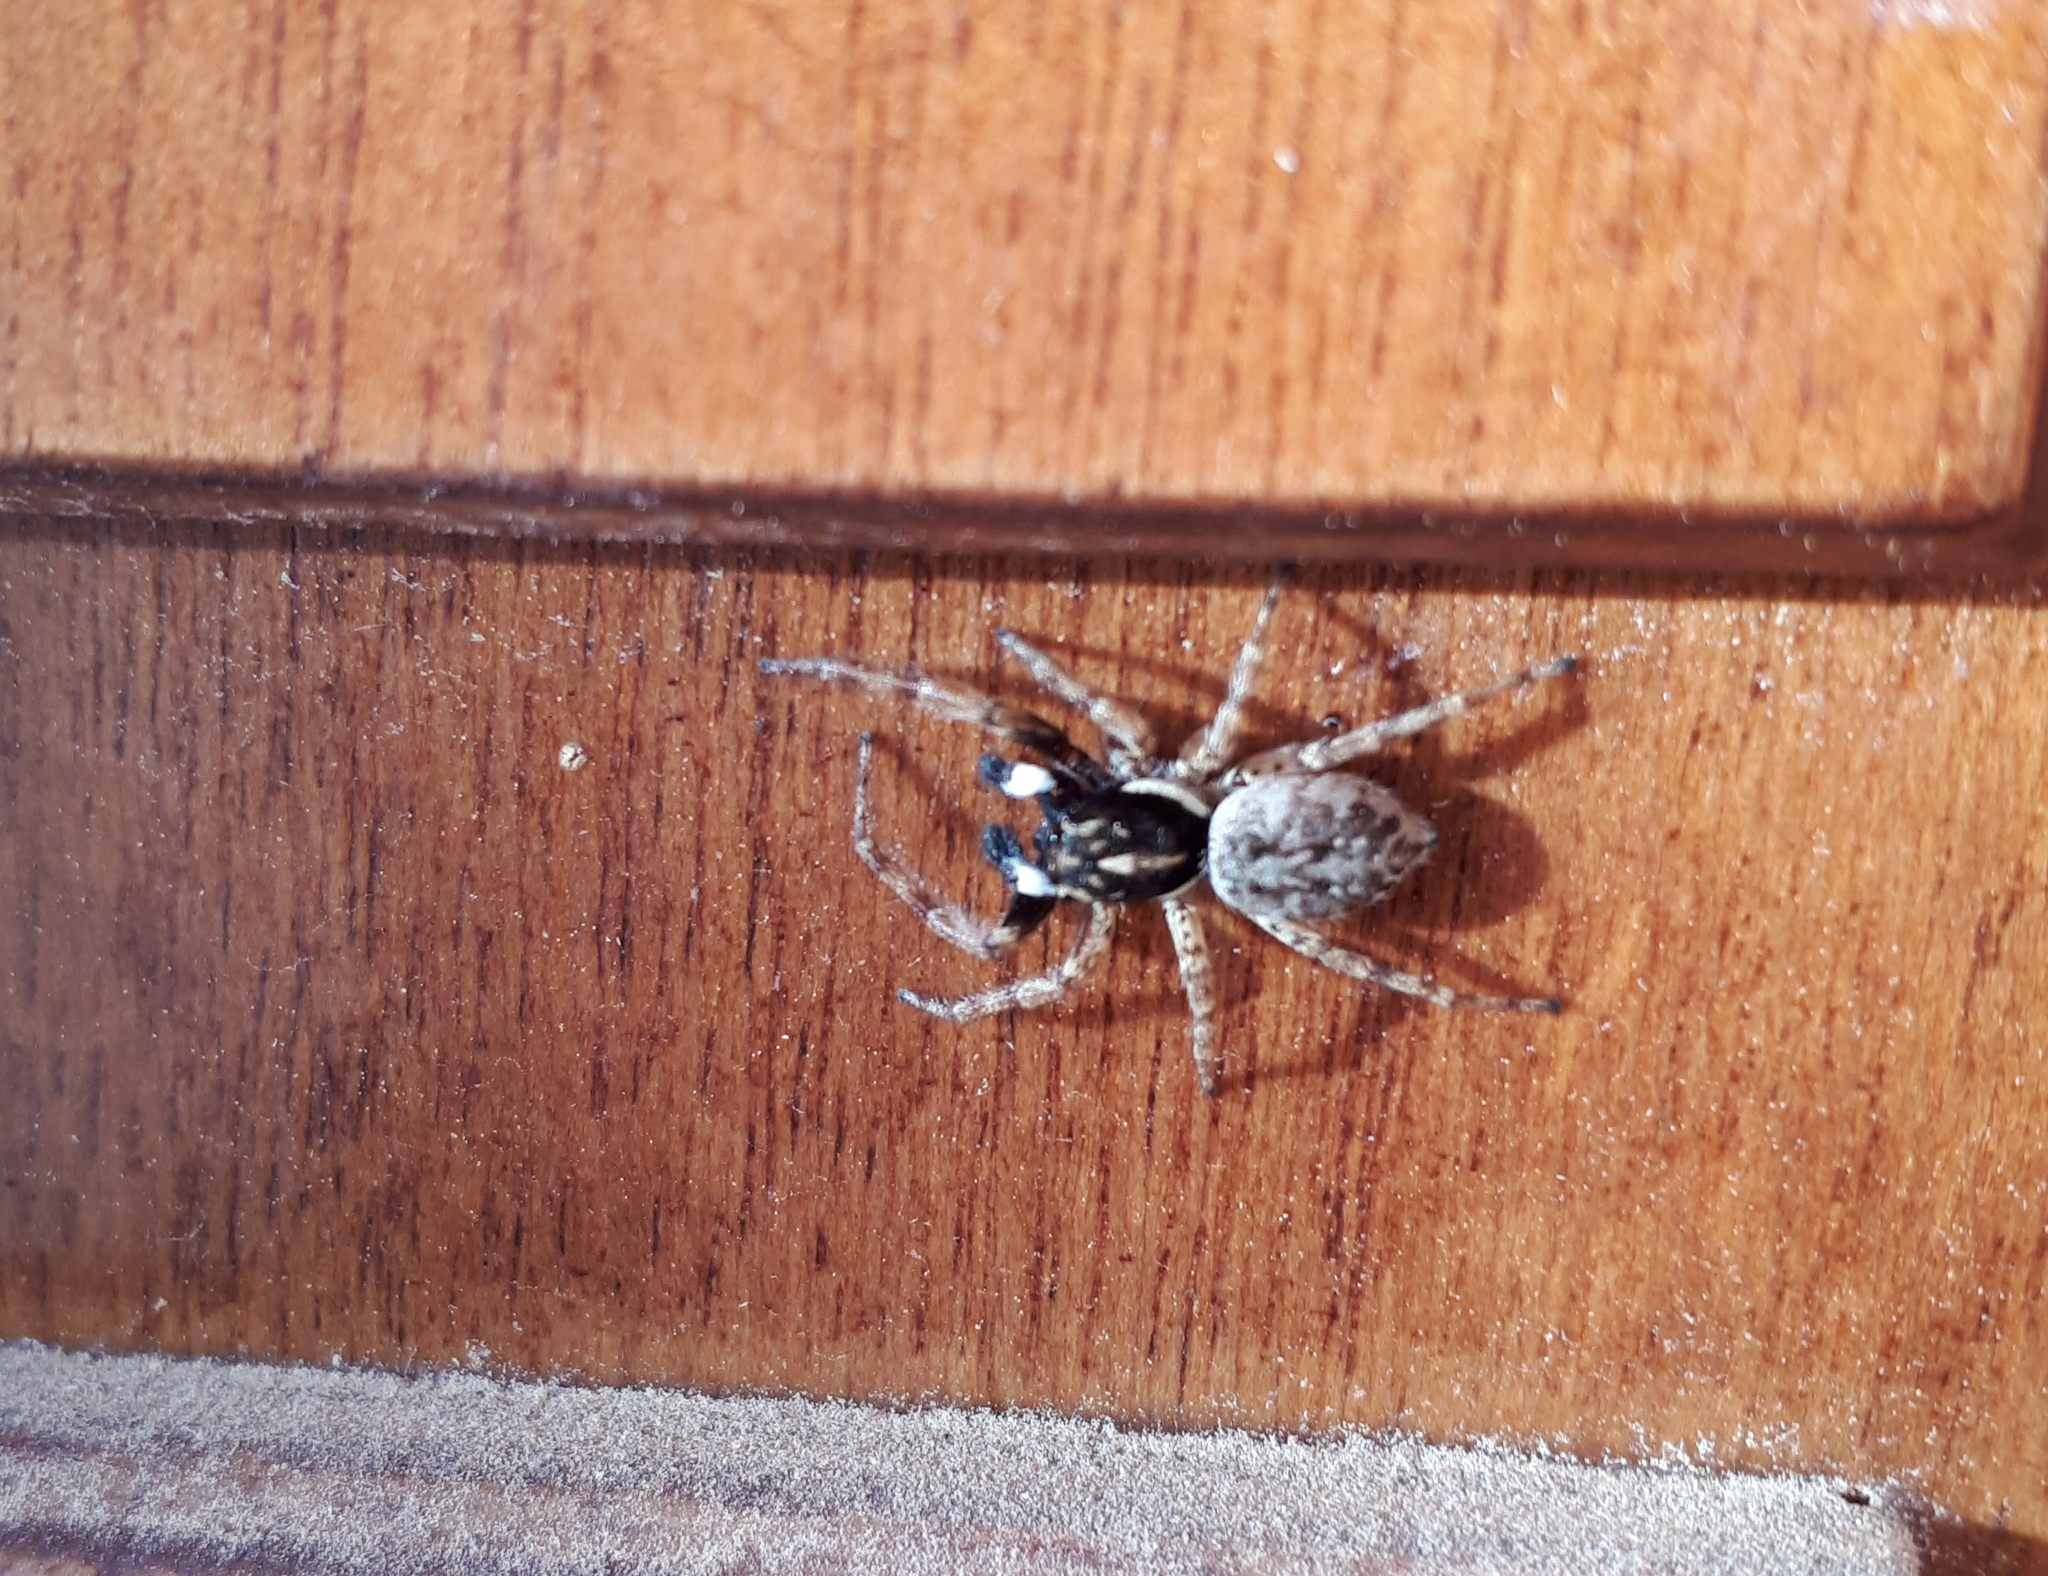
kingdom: Animalia
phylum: Arthropoda
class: Arachnida
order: Araneae
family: Salticidae
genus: Menemerus
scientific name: Menemerus semilimbatus
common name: Jumping spider
